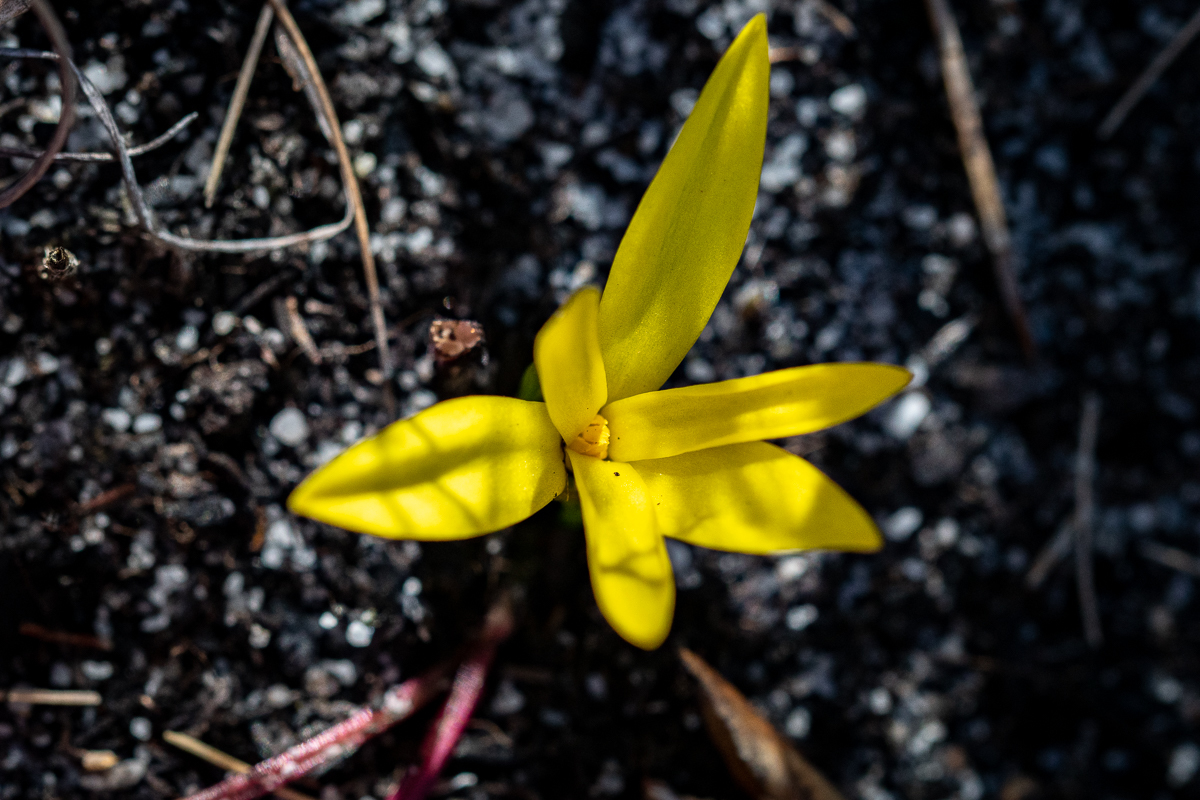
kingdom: Plantae
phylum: Tracheophyta
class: Liliopsida
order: Asparagales
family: Hypoxidaceae
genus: Pauridia
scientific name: Pauridia monophylla
